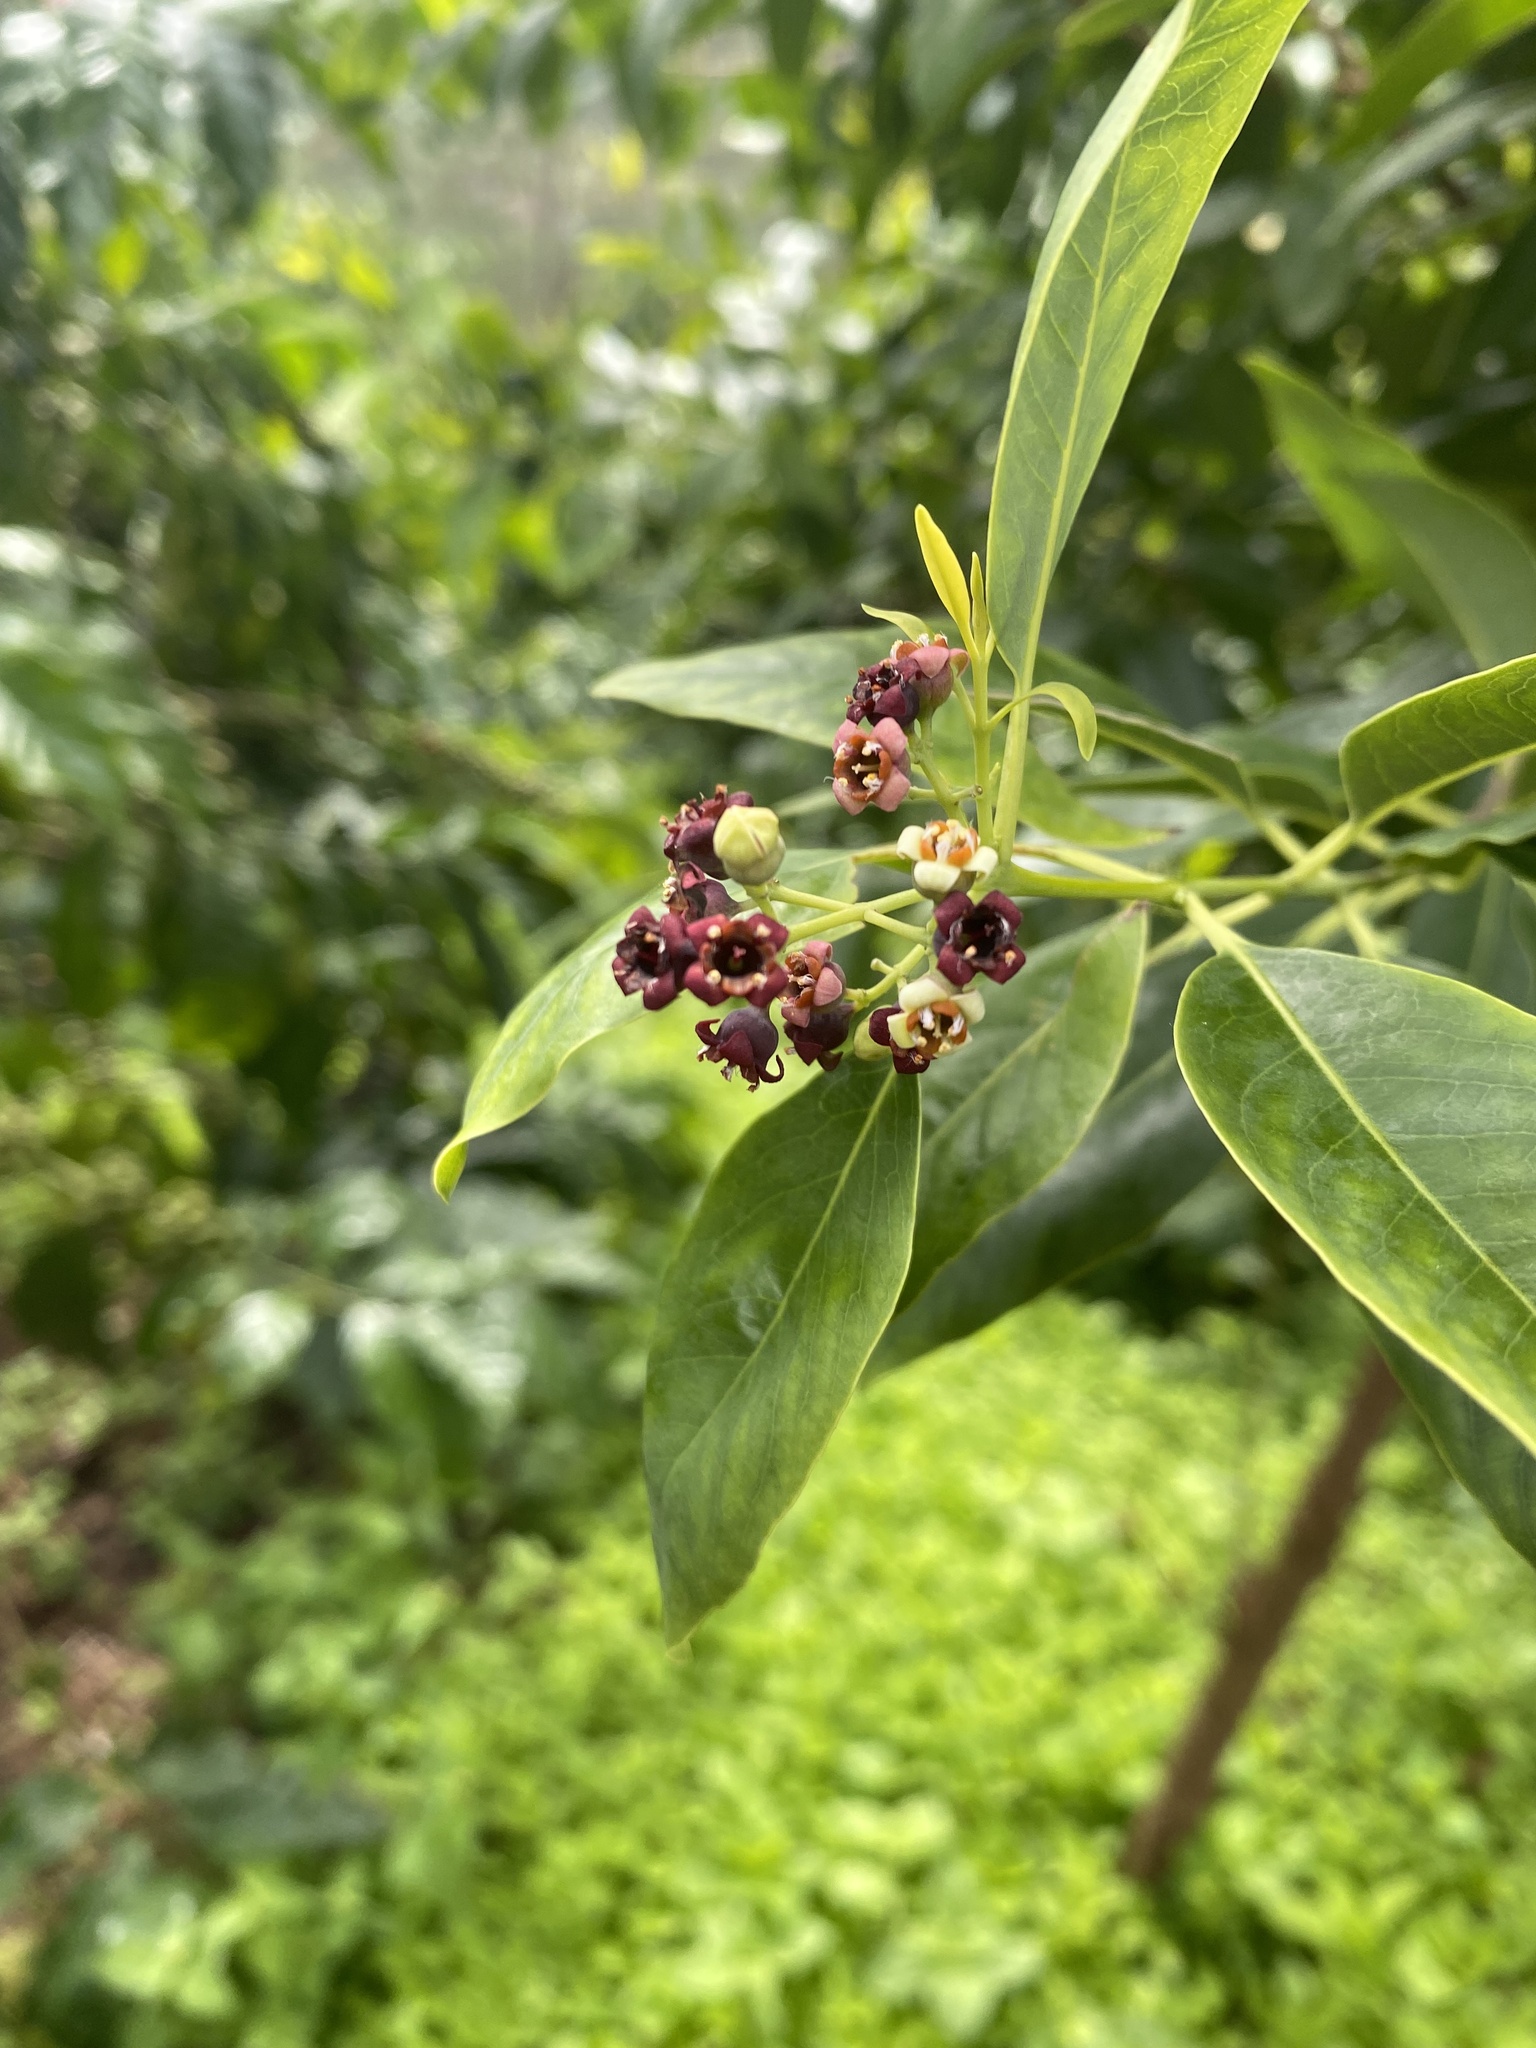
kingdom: Plantae
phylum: Tracheophyta
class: Magnoliopsida
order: Santalales
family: Santalaceae
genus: Santalum
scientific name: Santalum album
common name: Indian sandalwood
